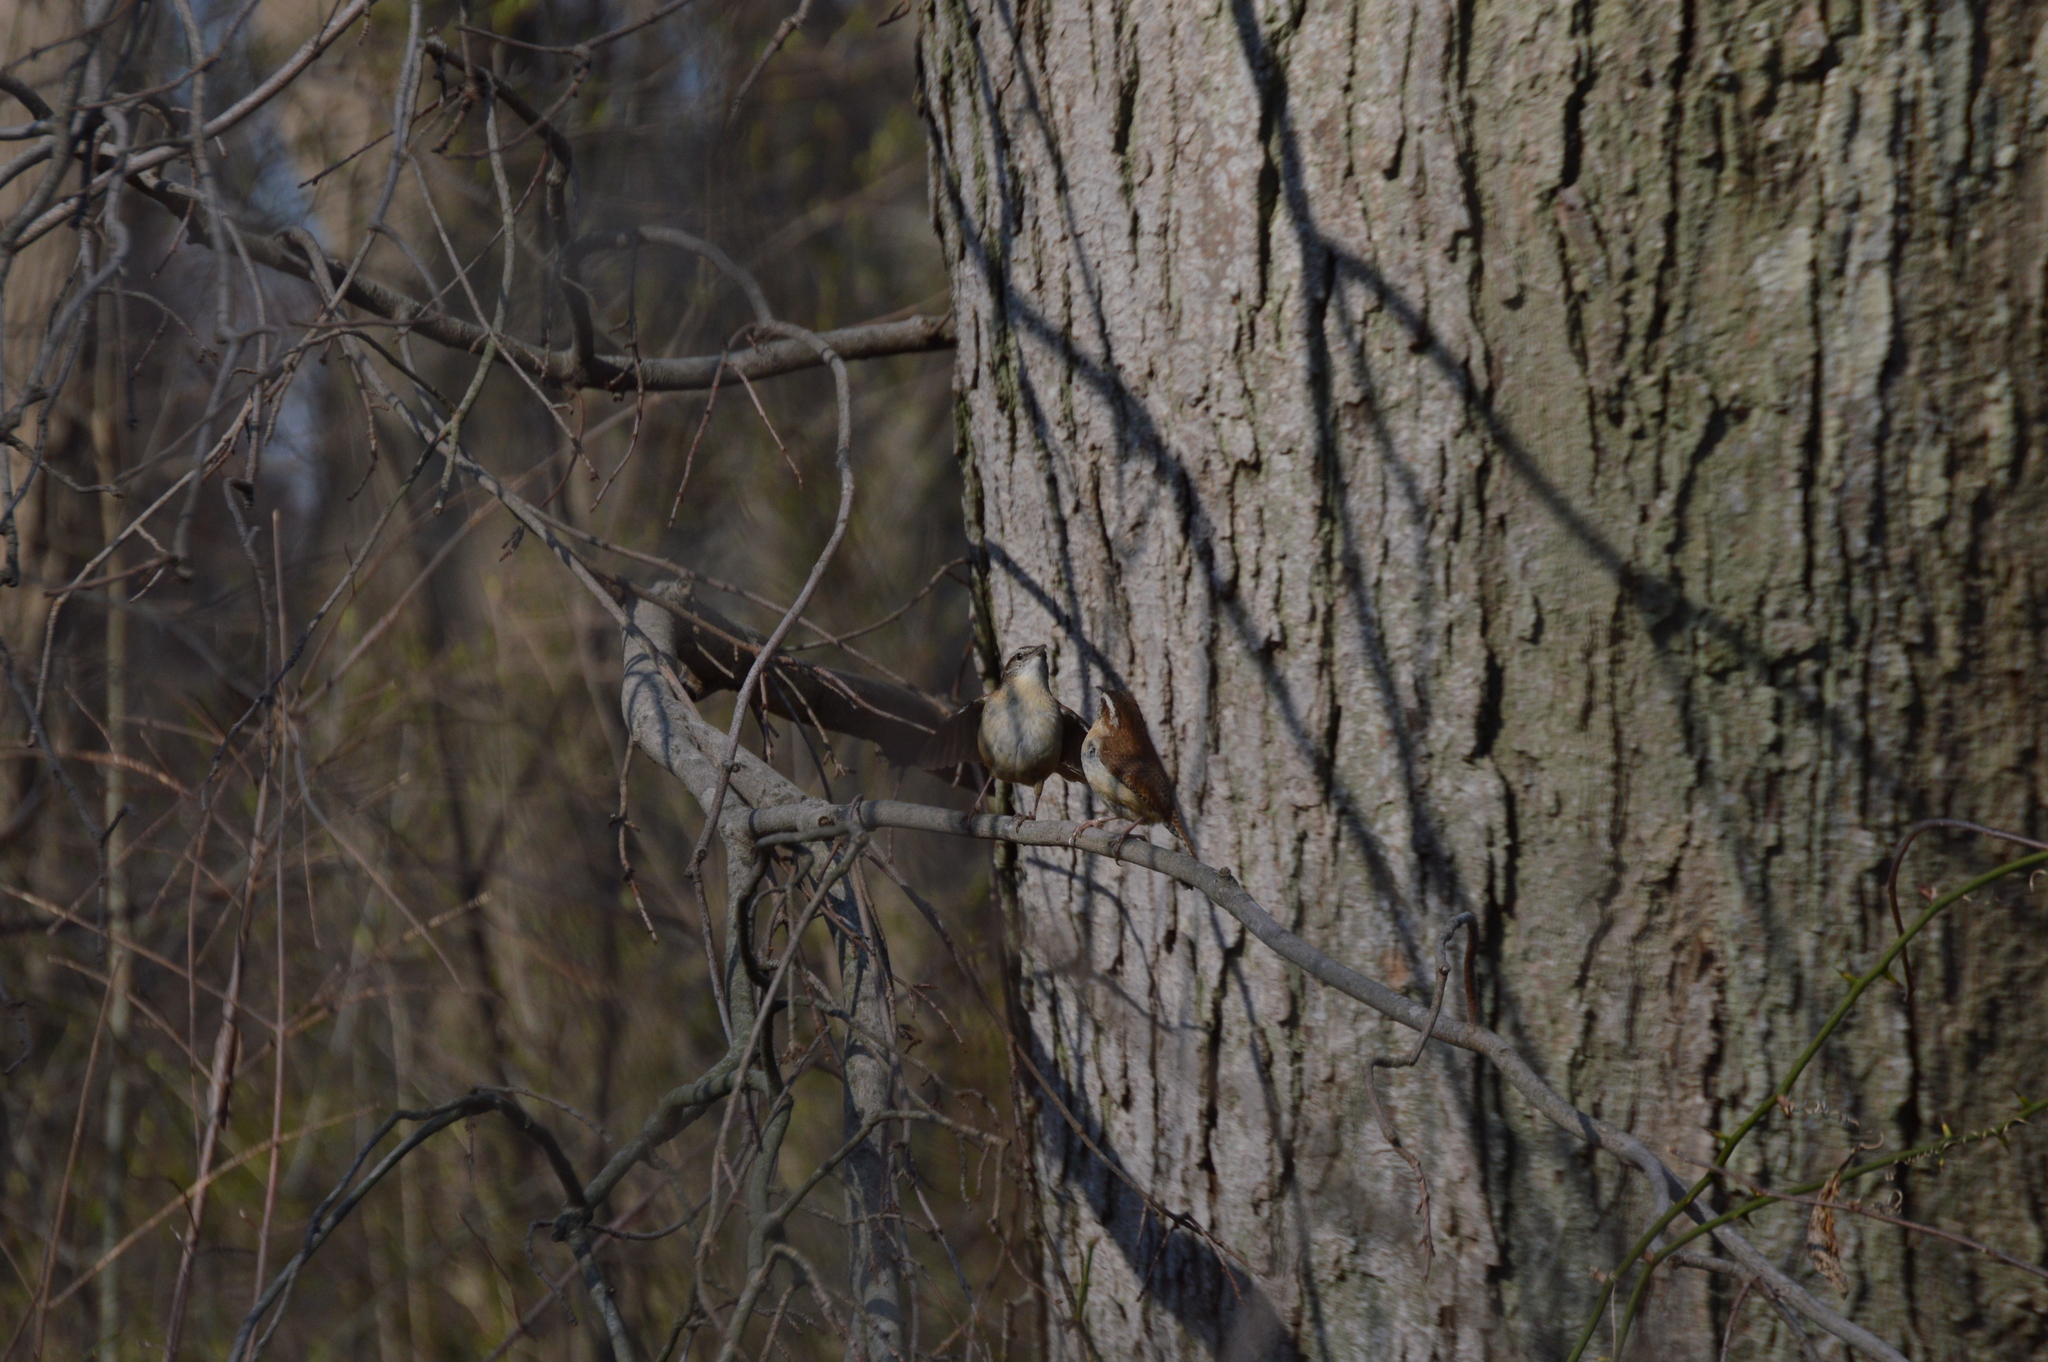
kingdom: Animalia
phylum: Chordata
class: Aves
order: Passeriformes
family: Troglodytidae
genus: Thryothorus
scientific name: Thryothorus ludovicianus
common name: Carolina wren
